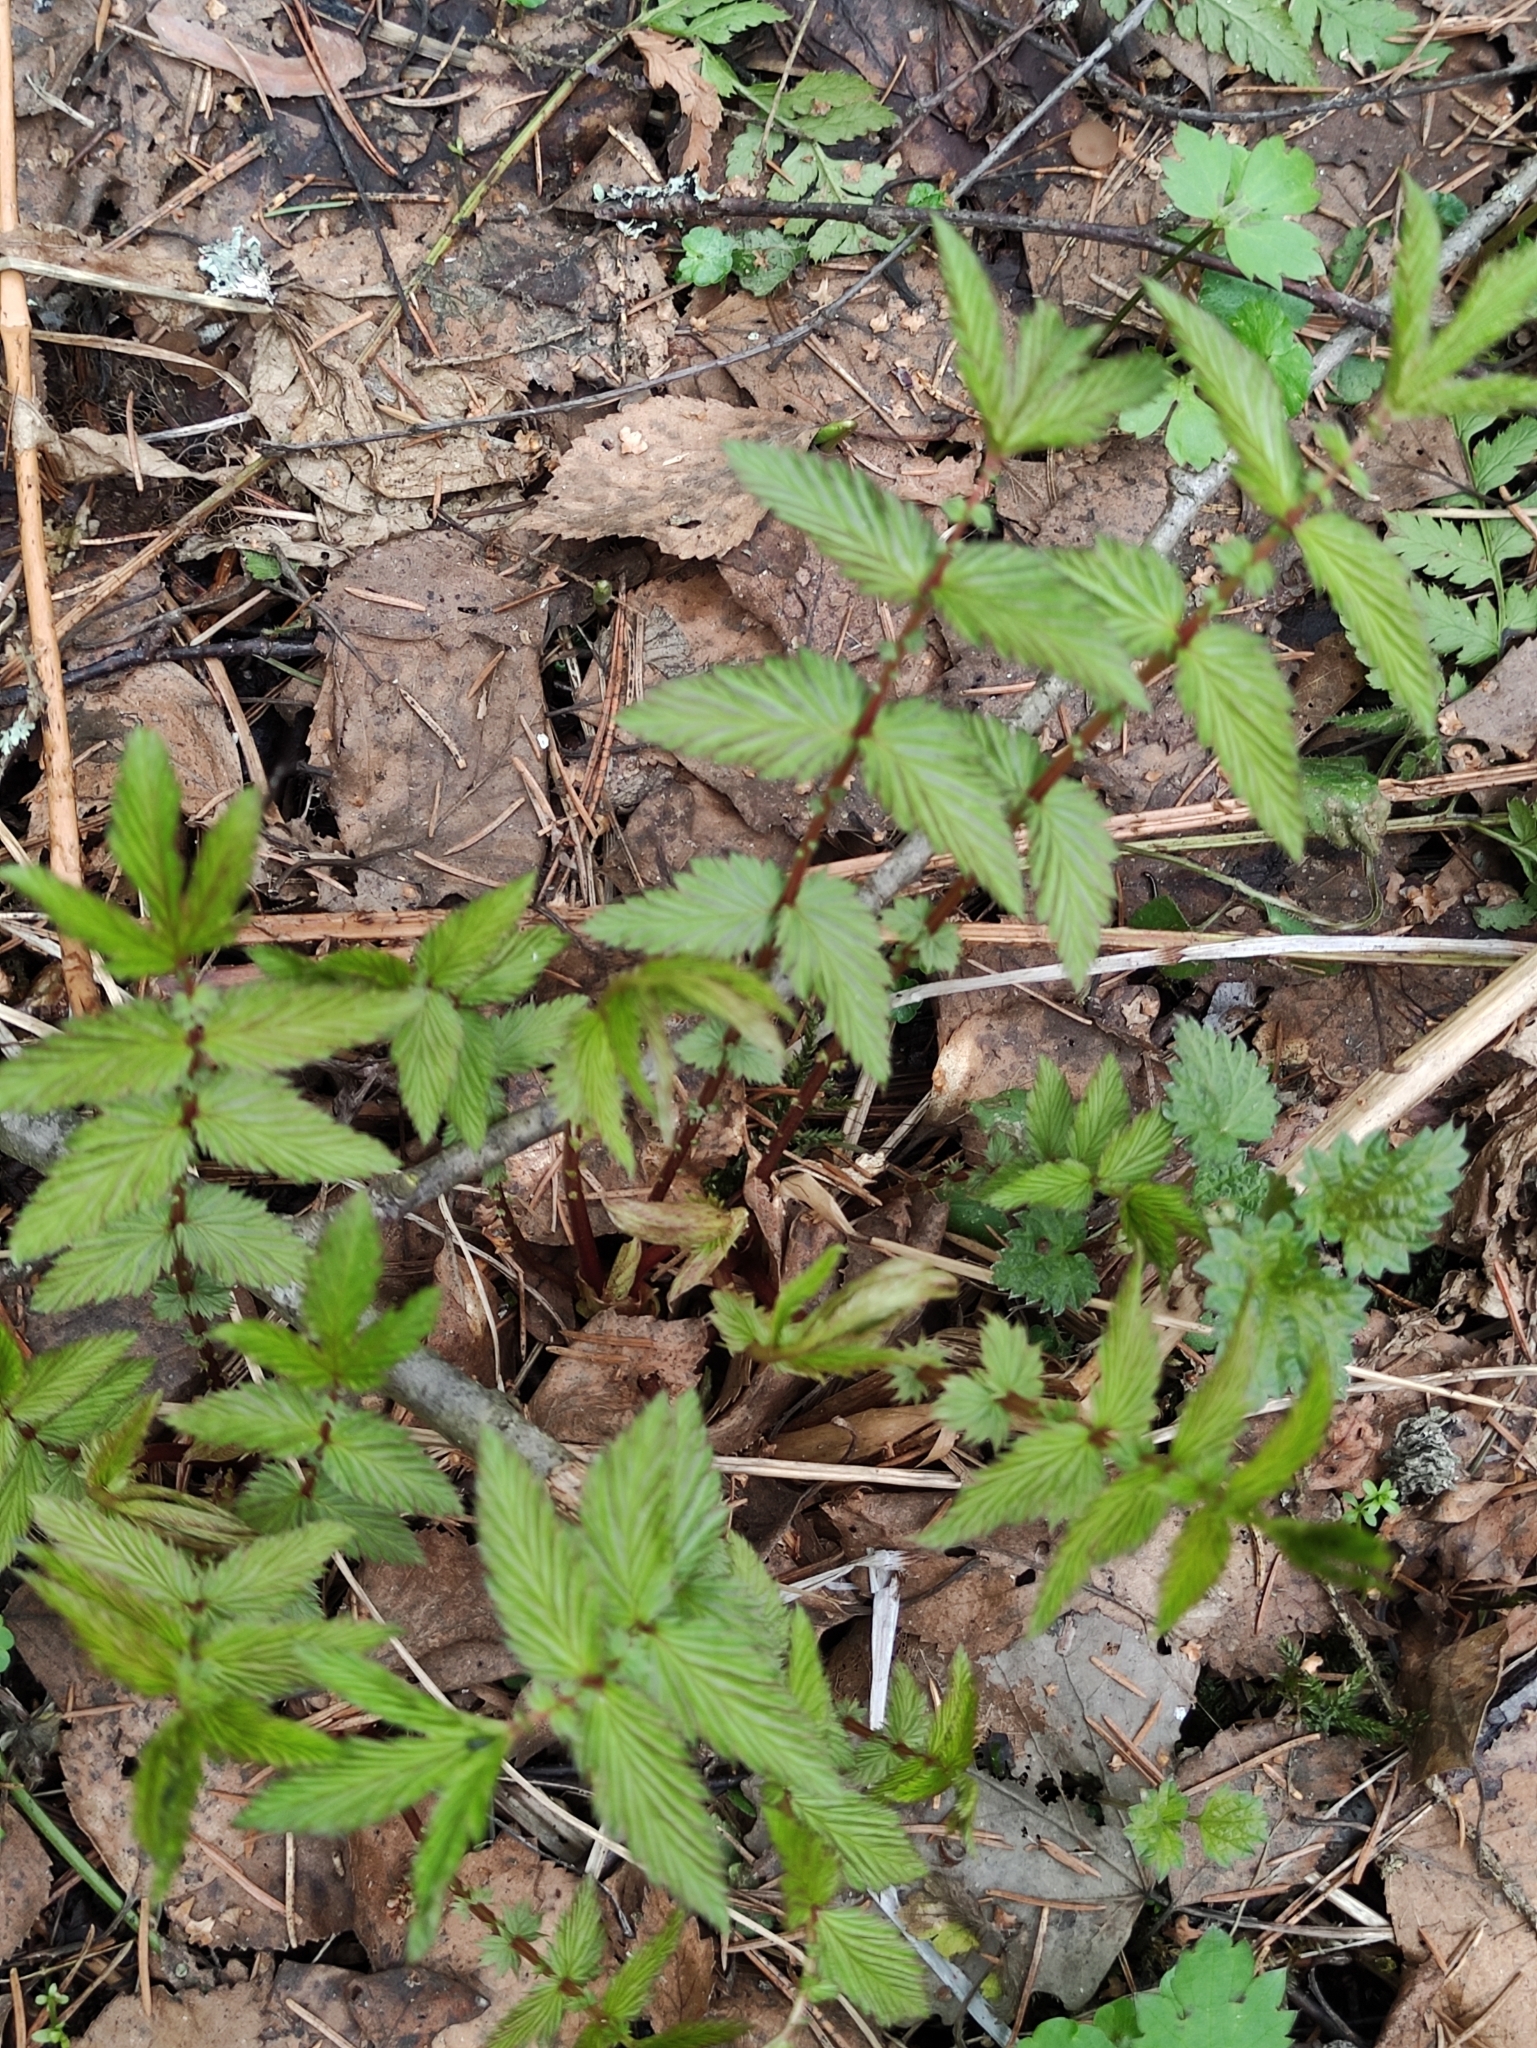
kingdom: Plantae
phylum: Tracheophyta
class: Magnoliopsida
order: Rosales
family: Rosaceae
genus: Filipendula
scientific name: Filipendula ulmaria
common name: Meadowsweet
